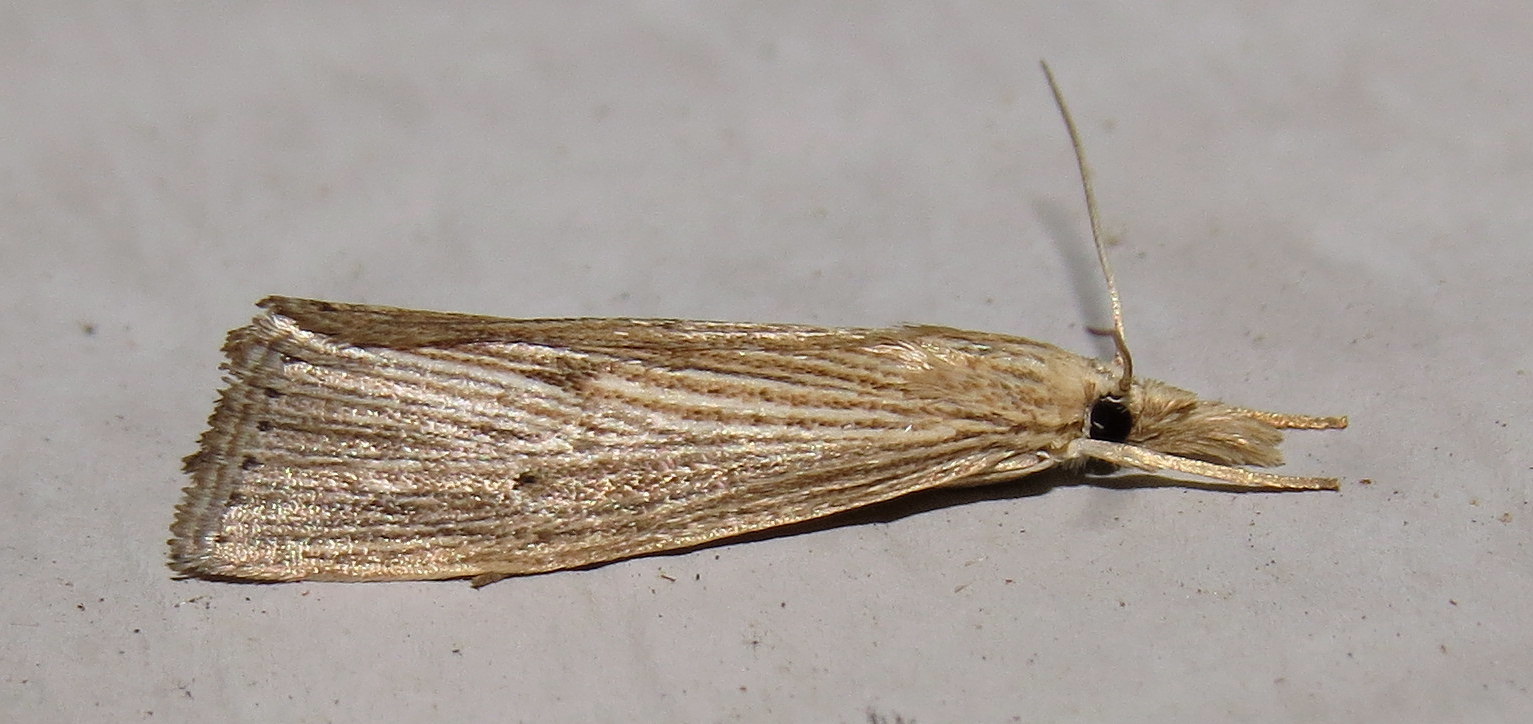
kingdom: Animalia
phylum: Arthropoda
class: Insecta
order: Lepidoptera
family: Crambidae
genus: Xubida
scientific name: Xubida panalope
